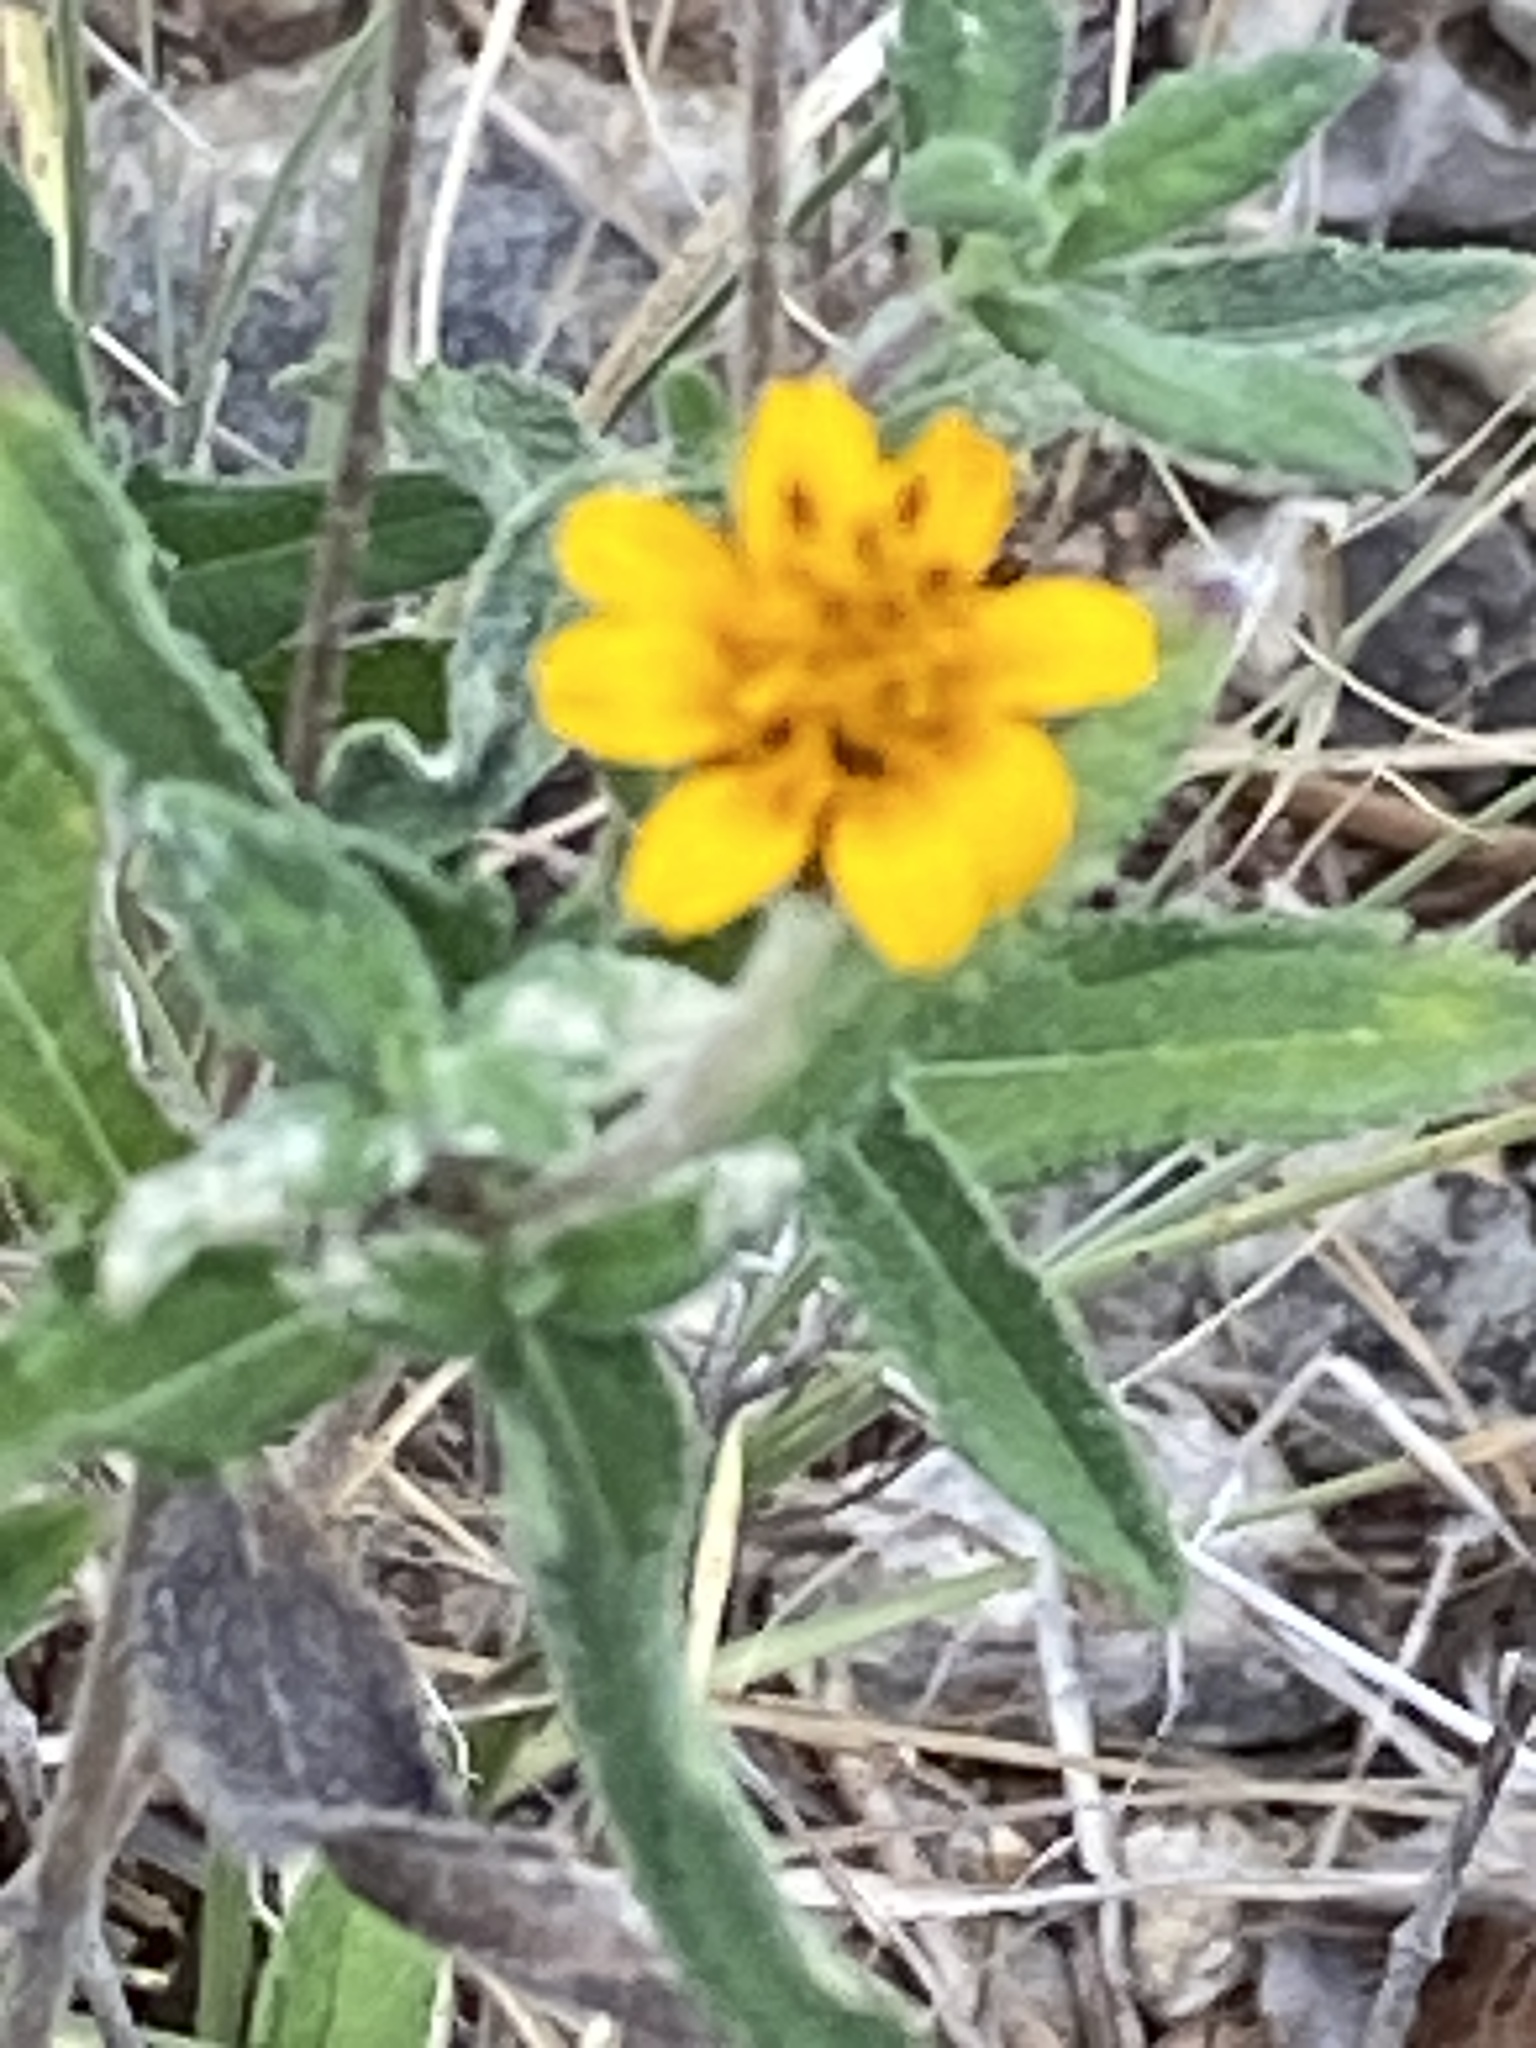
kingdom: Plantae
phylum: Tracheophyta
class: Magnoliopsida
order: Asterales
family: Asteraceae
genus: Wedelia
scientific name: Wedelia acapulcensis
